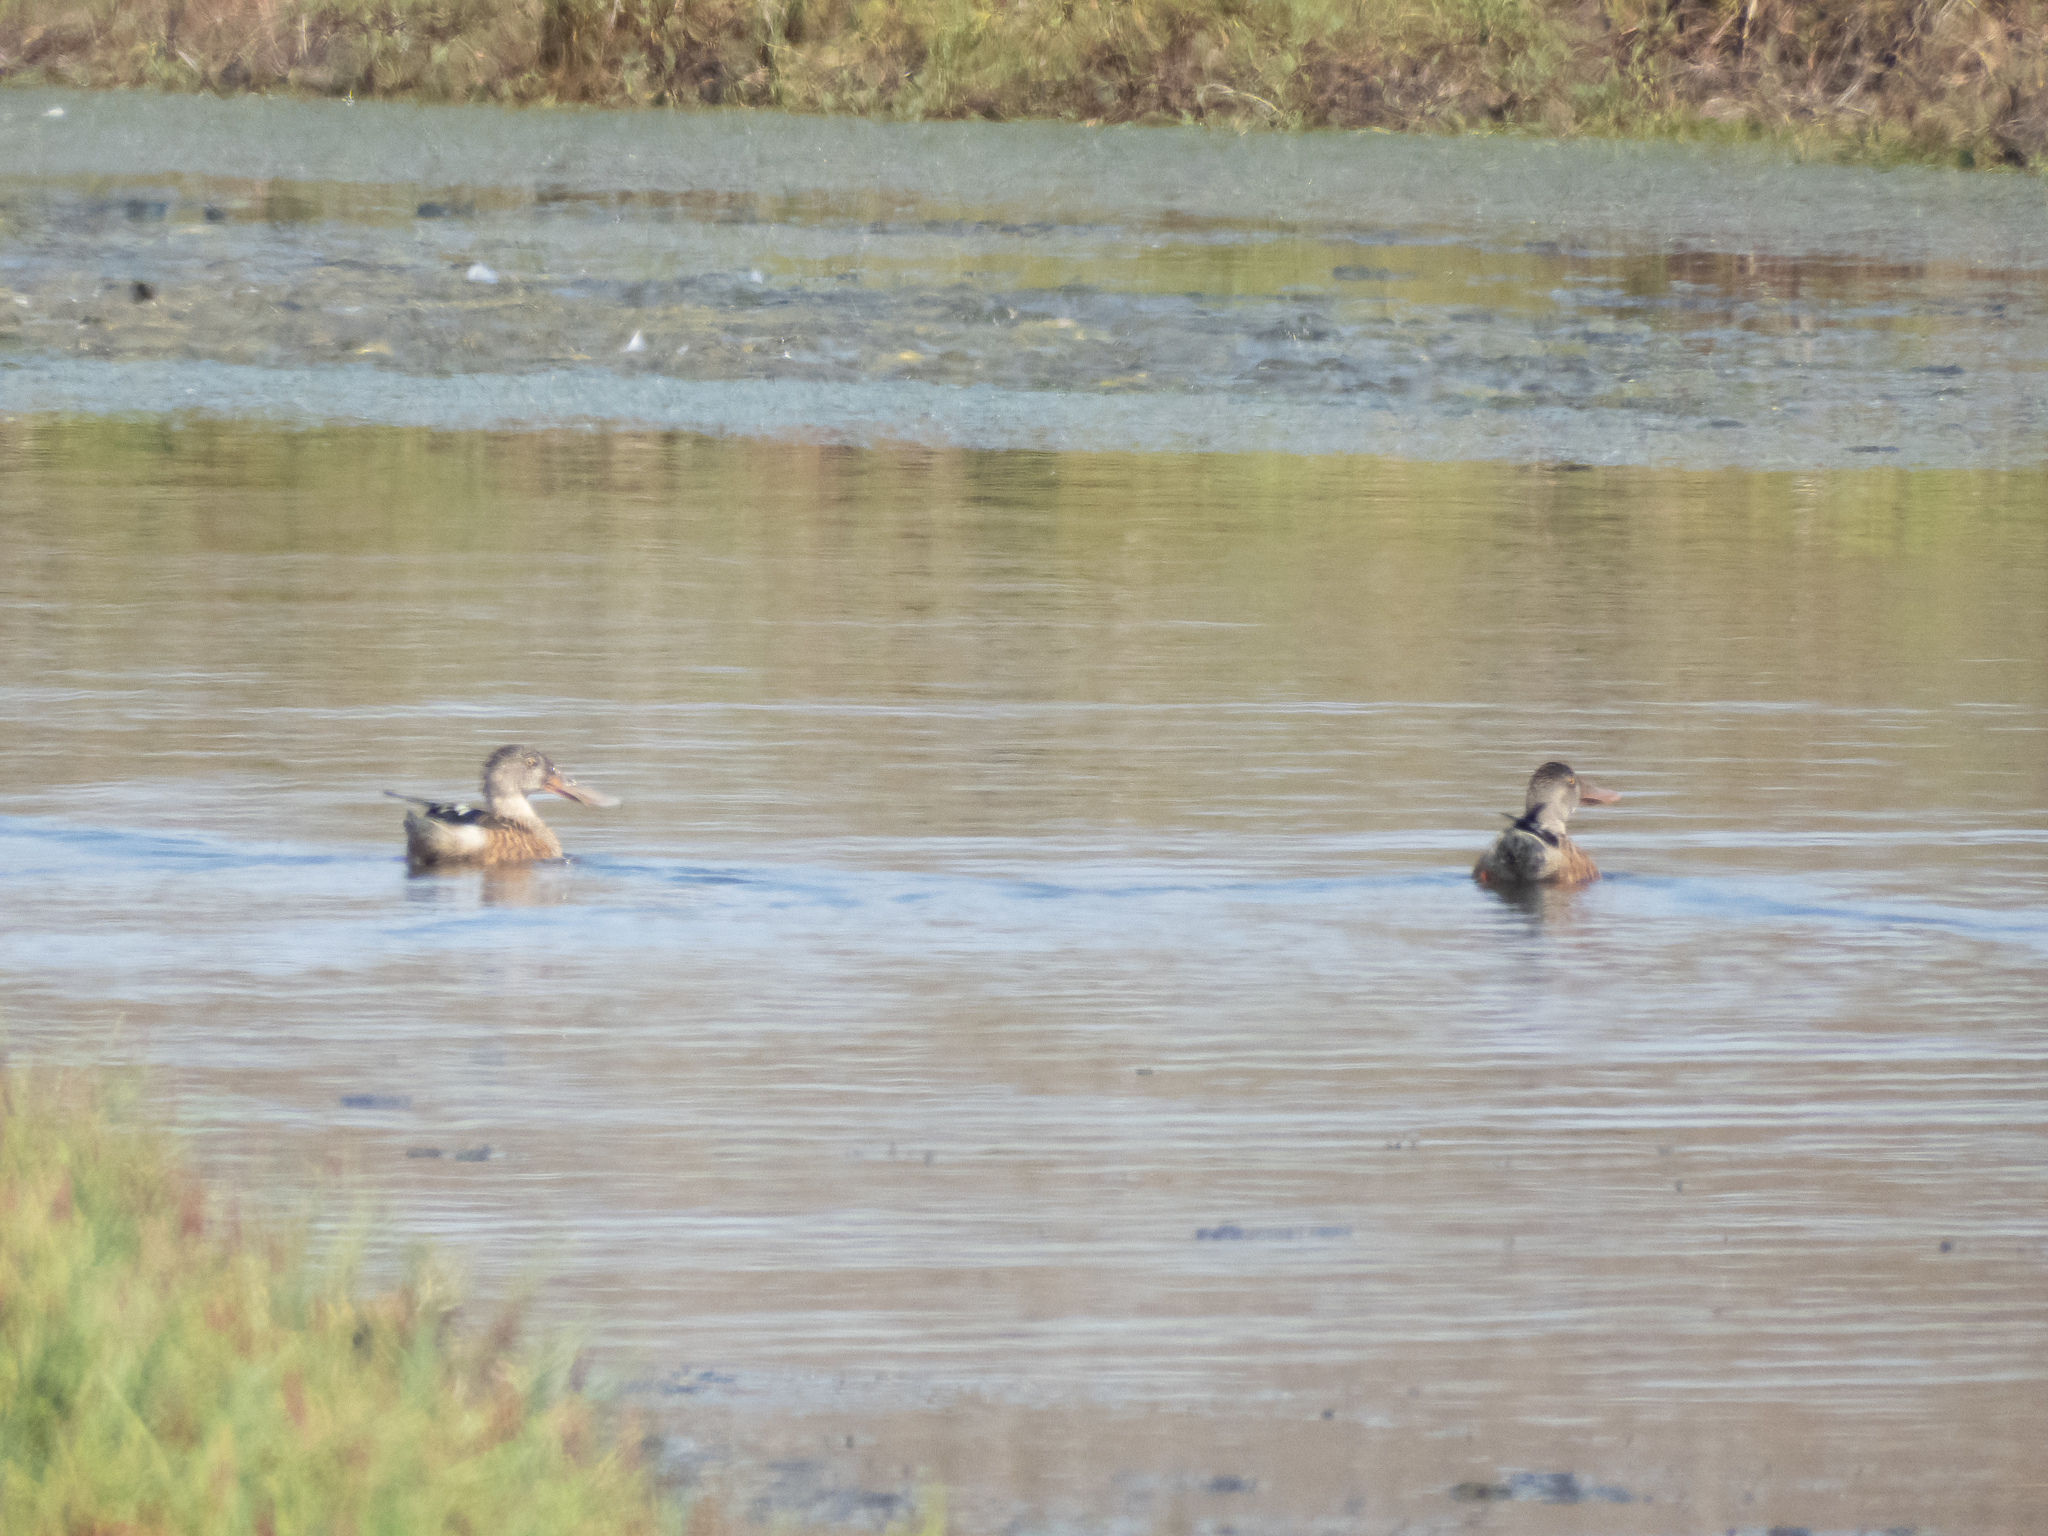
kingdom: Animalia
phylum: Chordata
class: Aves
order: Anseriformes
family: Anatidae
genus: Spatula
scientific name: Spatula clypeata
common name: Northern shoveler
